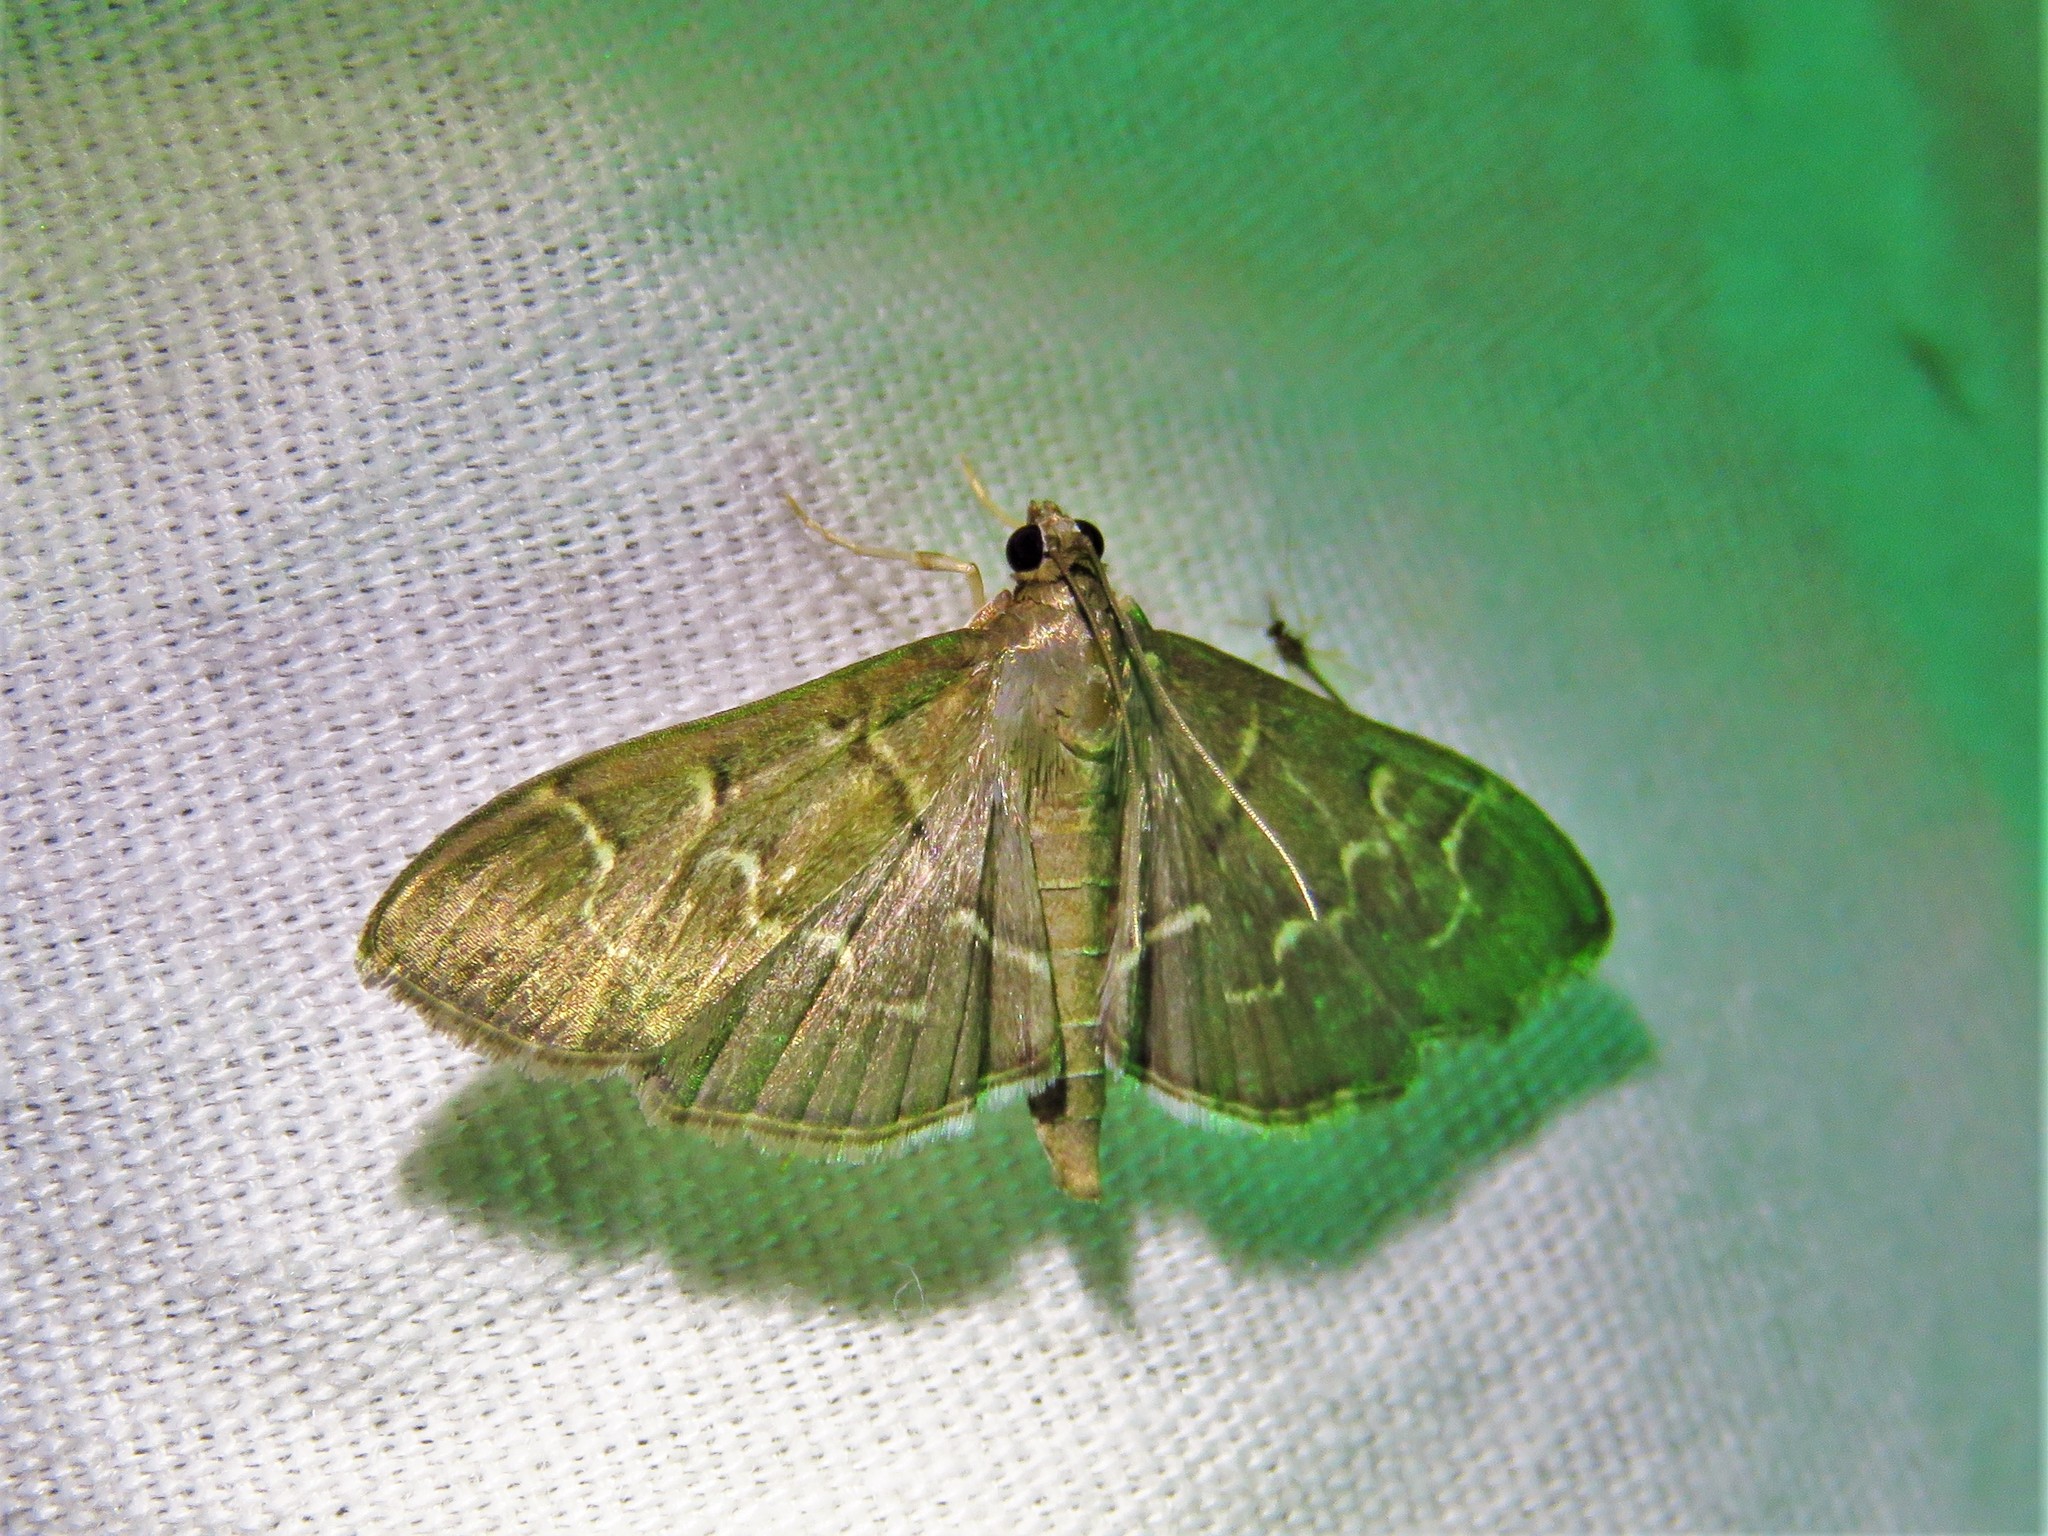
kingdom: Animalia
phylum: Arthropoda
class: Insecta
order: Lepidoptera
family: Crambidae
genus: Pilocrocis
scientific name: Pilocrocis ramentalis
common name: Scraped pilocrocis
